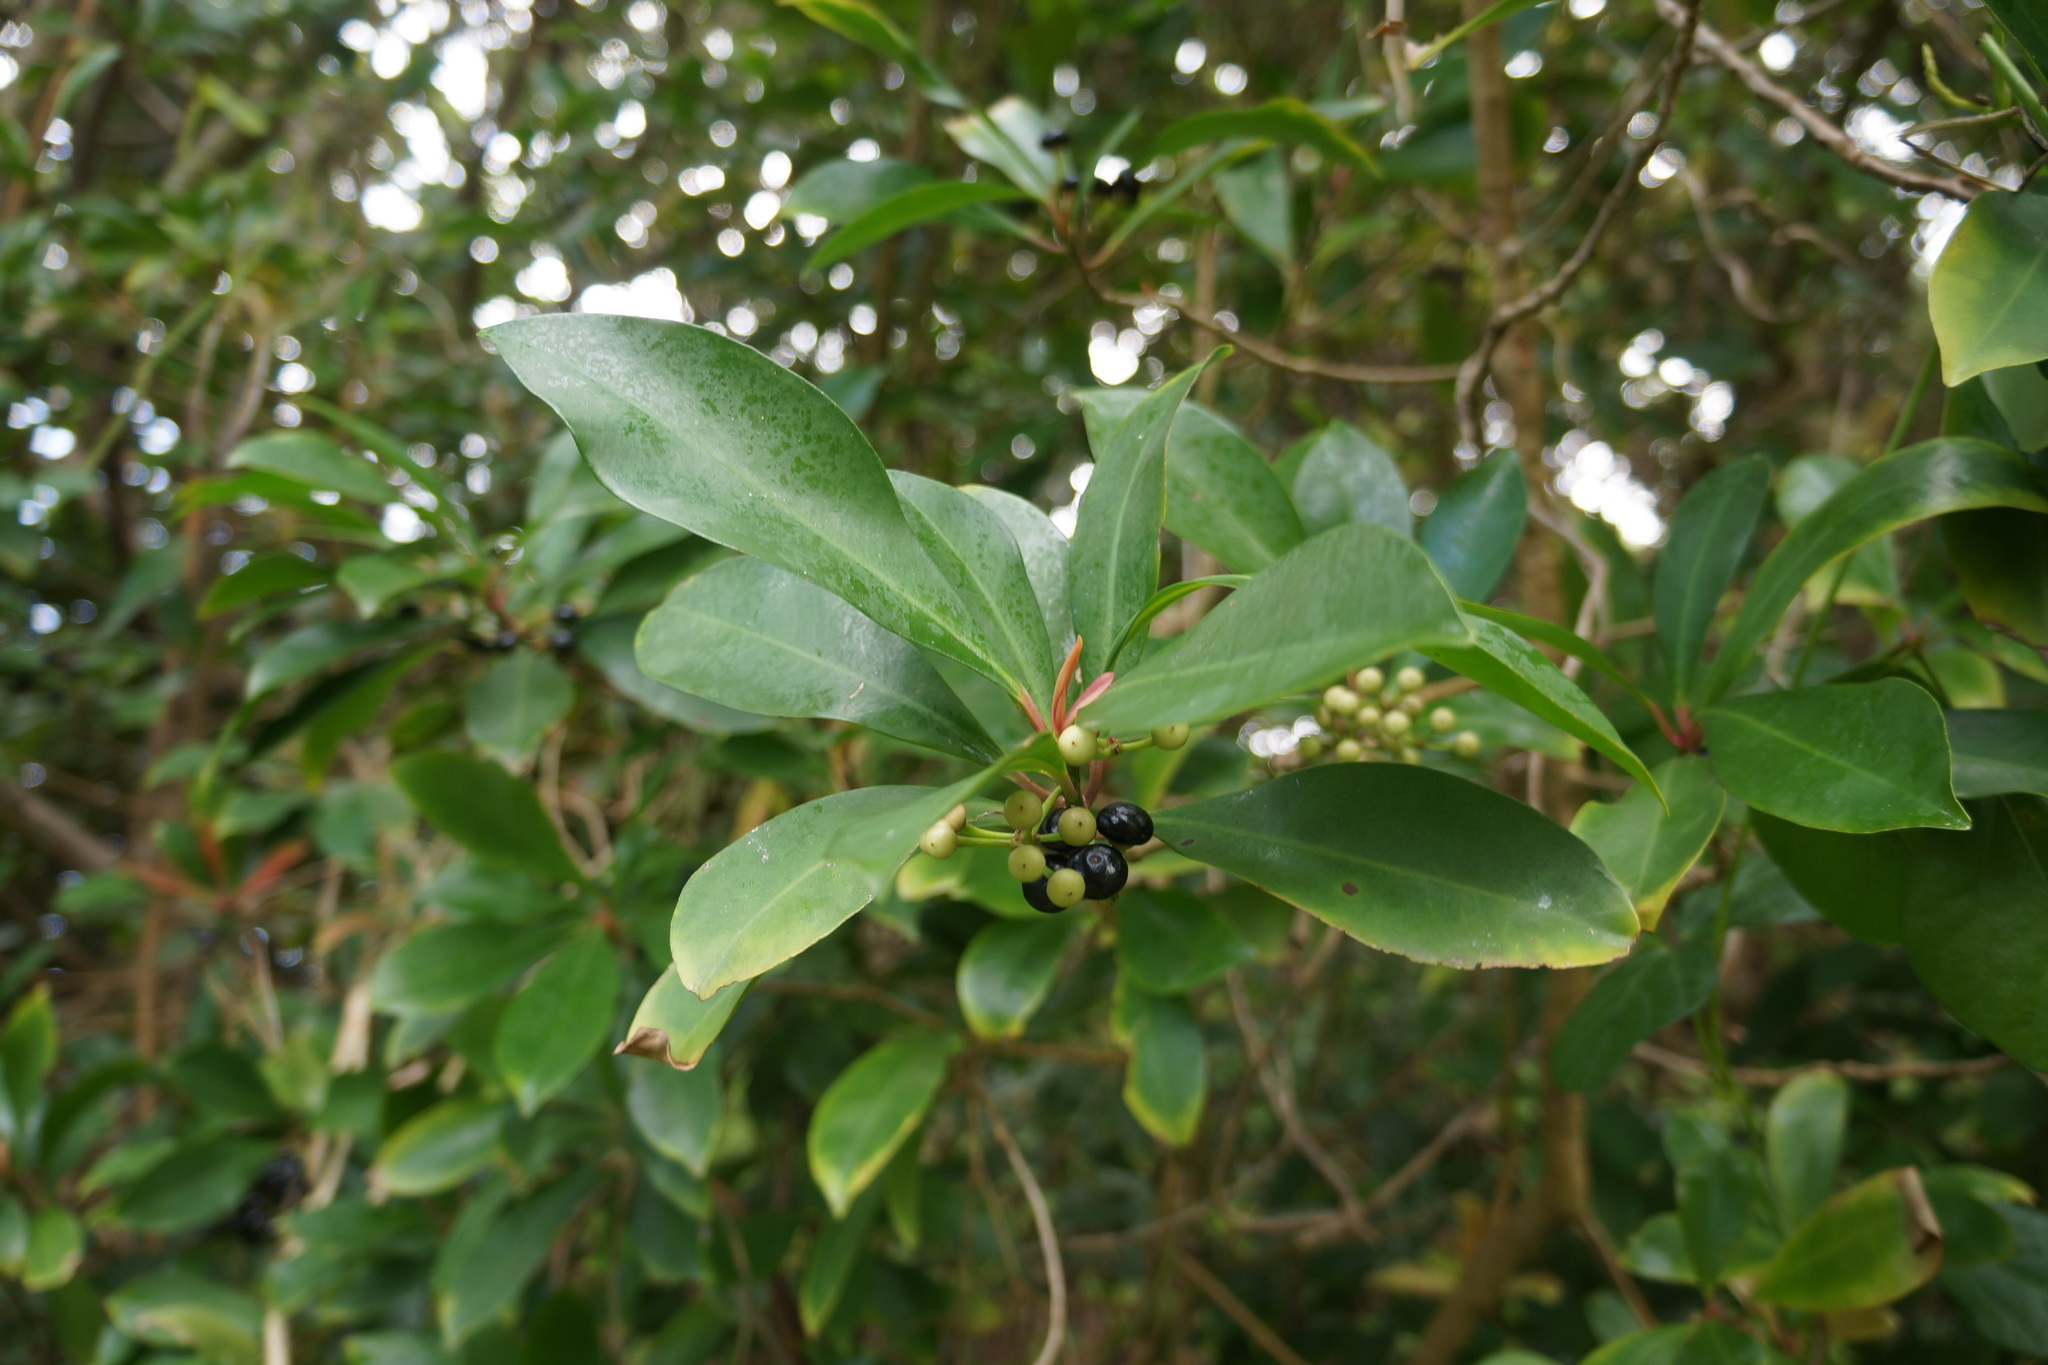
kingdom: Plantae
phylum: Tracheophyta
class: Magnoliopsida
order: Ericales
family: Primulaceae
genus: Ardisia
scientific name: Ardisia elliptica
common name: Shoebutton
